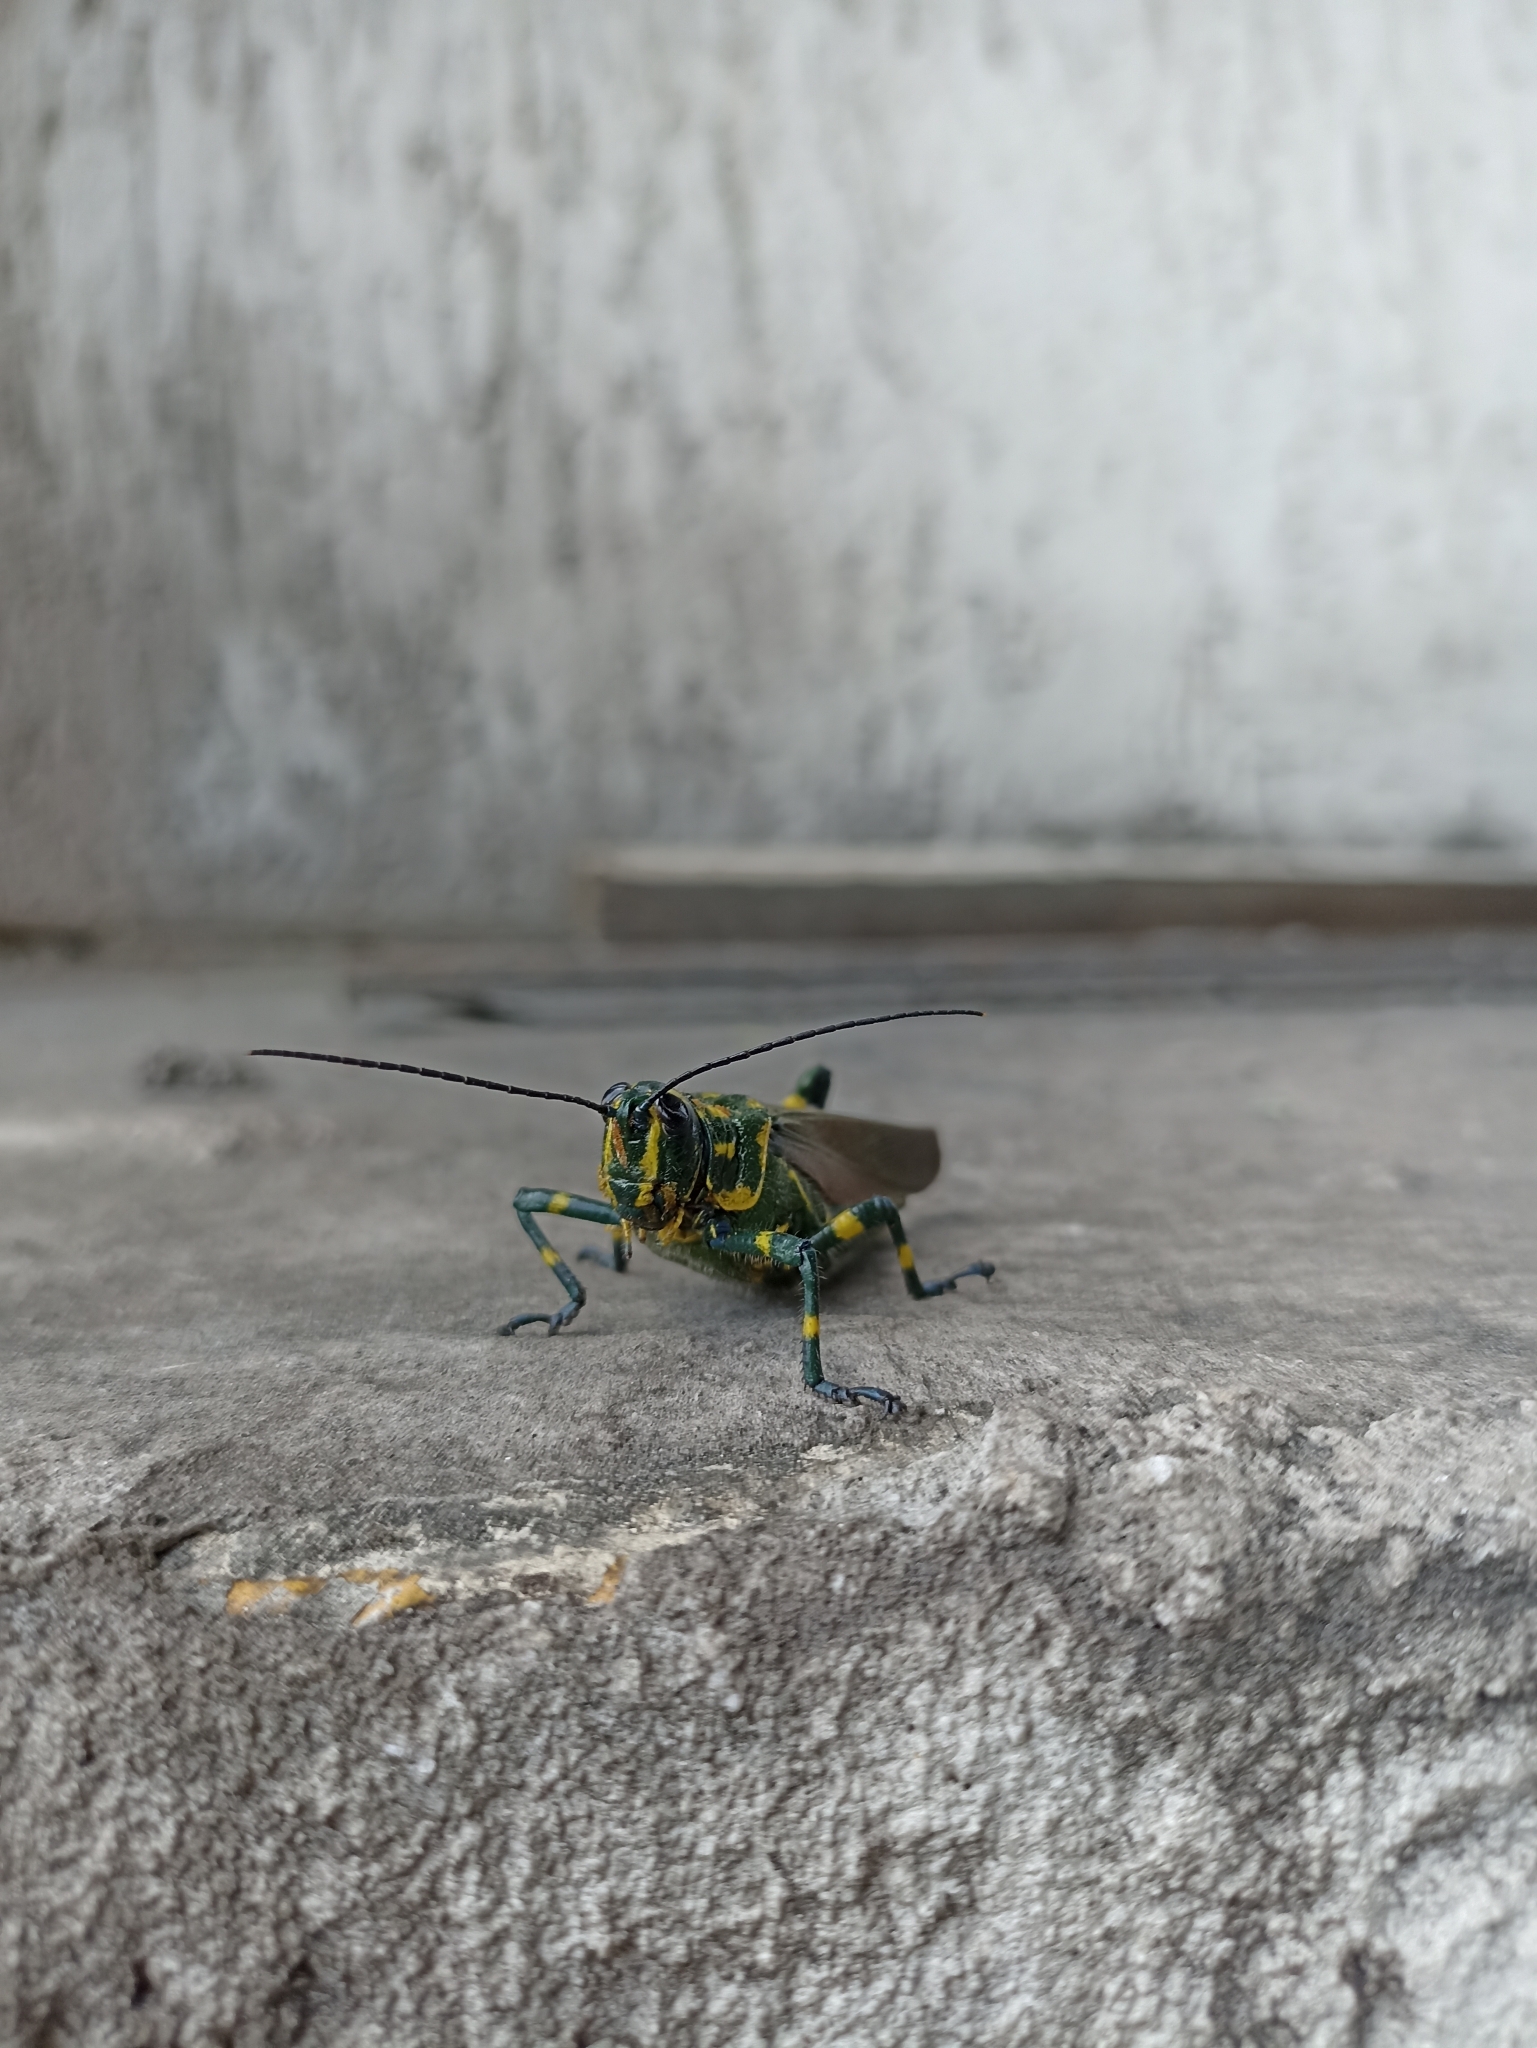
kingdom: Animalia
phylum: Arthropoda
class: Insecta
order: Orthoptera
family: Romaleidae
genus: Chromacris
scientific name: Chromacris speciosa
